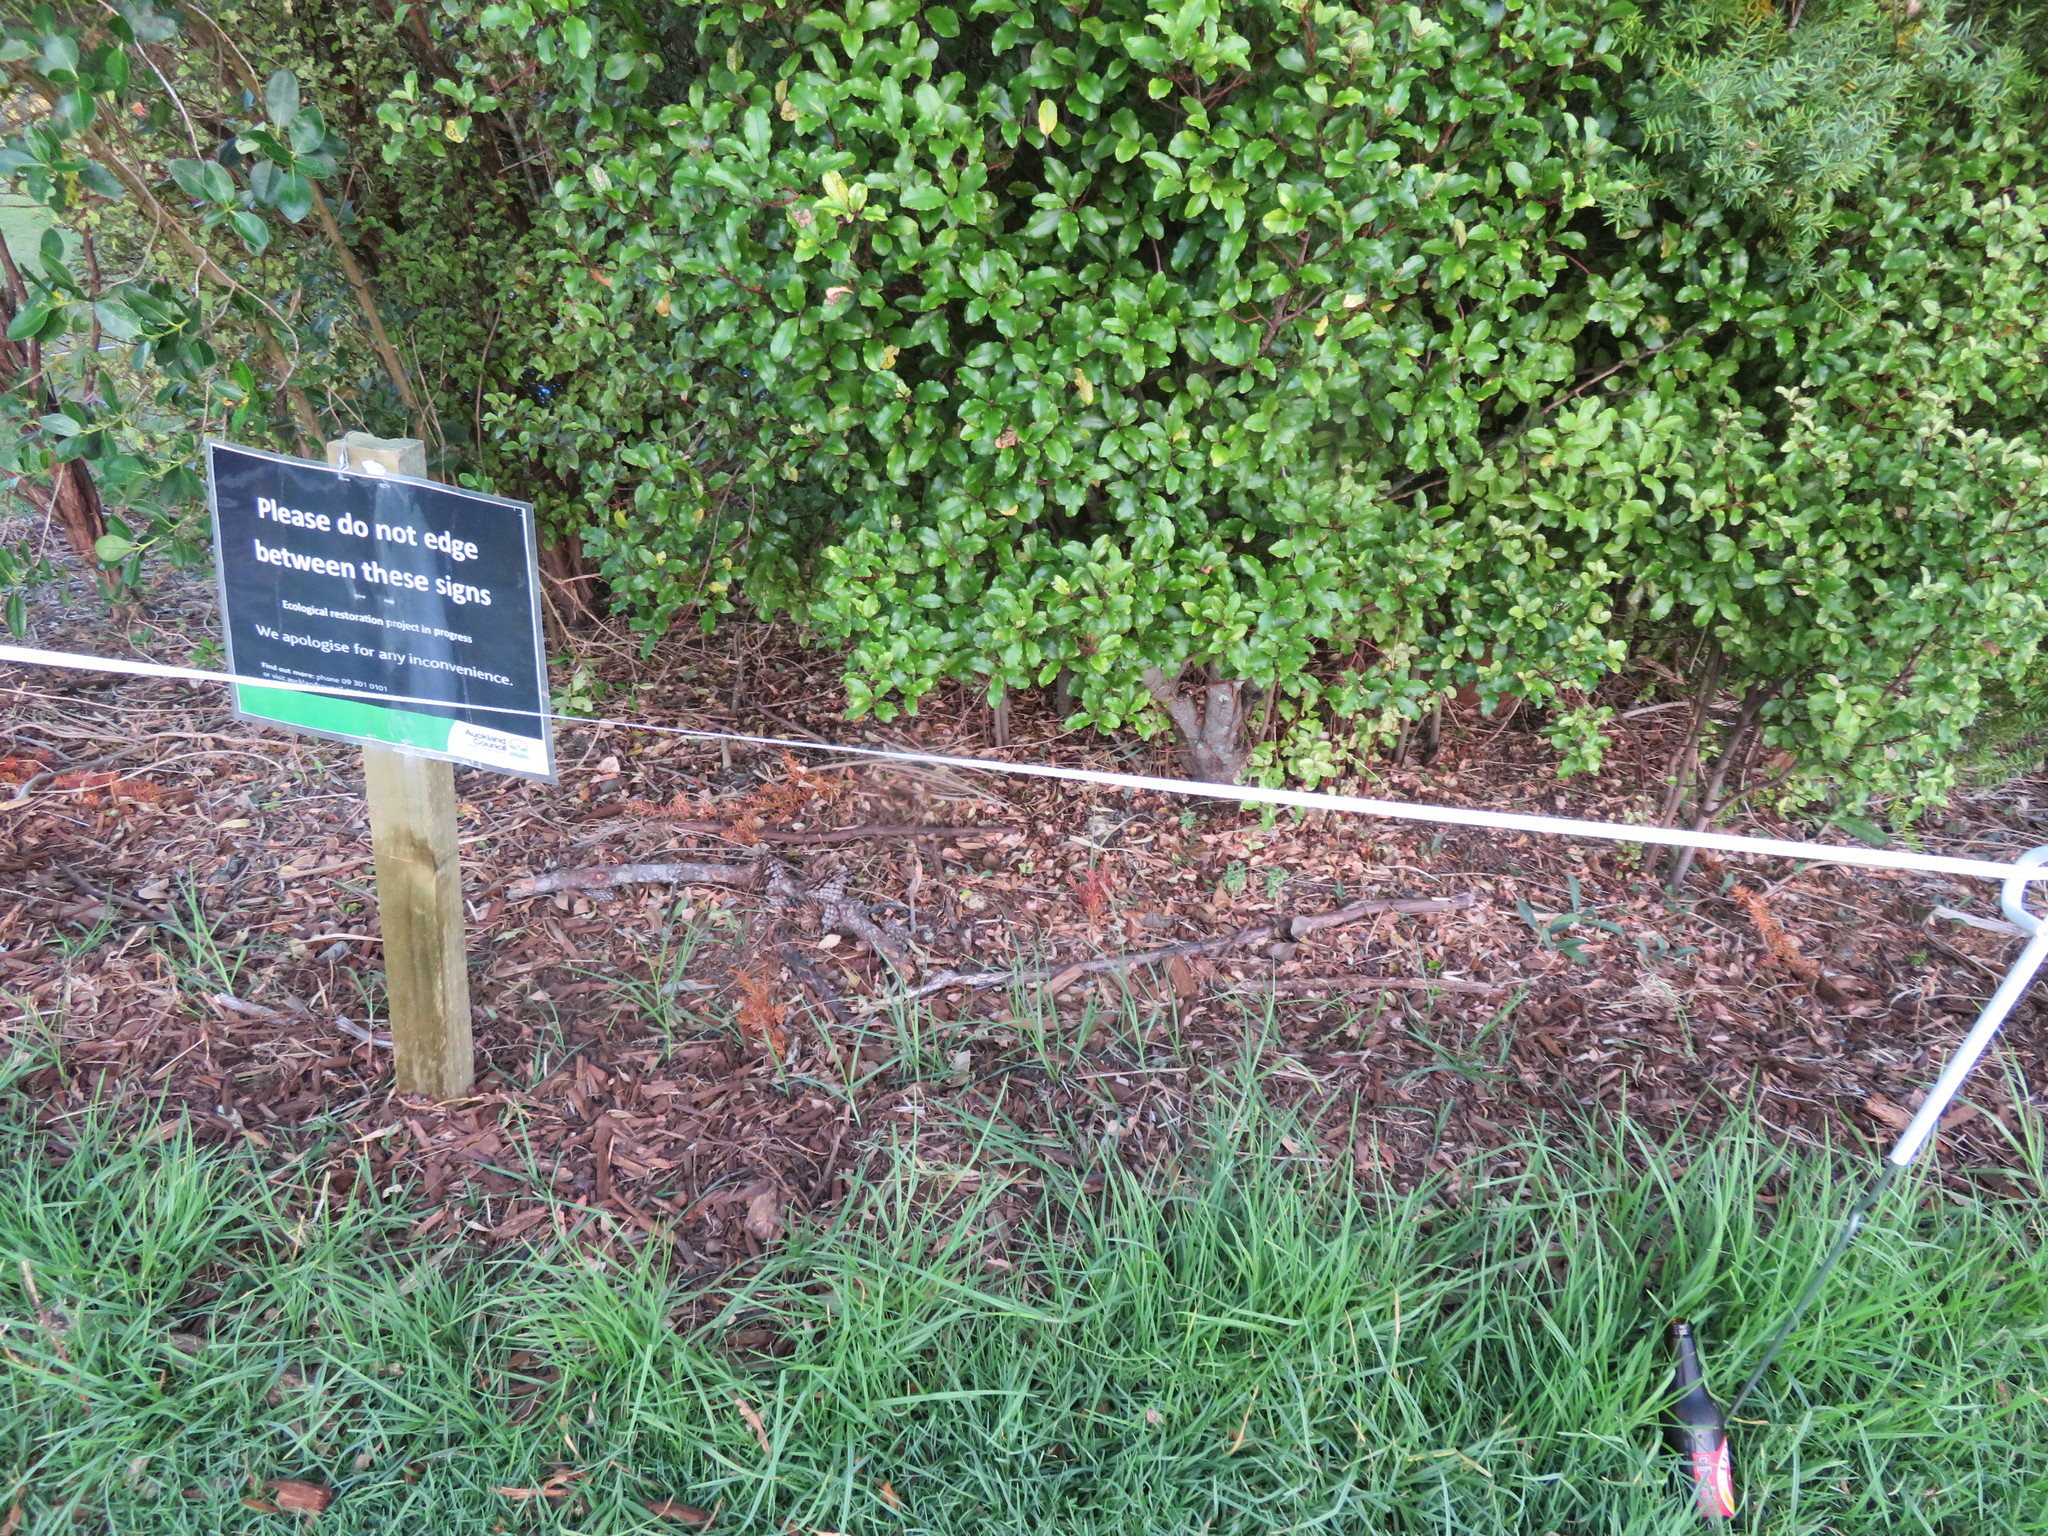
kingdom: Plantae
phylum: Tracheophyta
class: Liliopsida
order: Poales
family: Poaceae
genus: Cenchrus
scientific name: Cenchrus clandestinus
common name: Kikuyugrass
